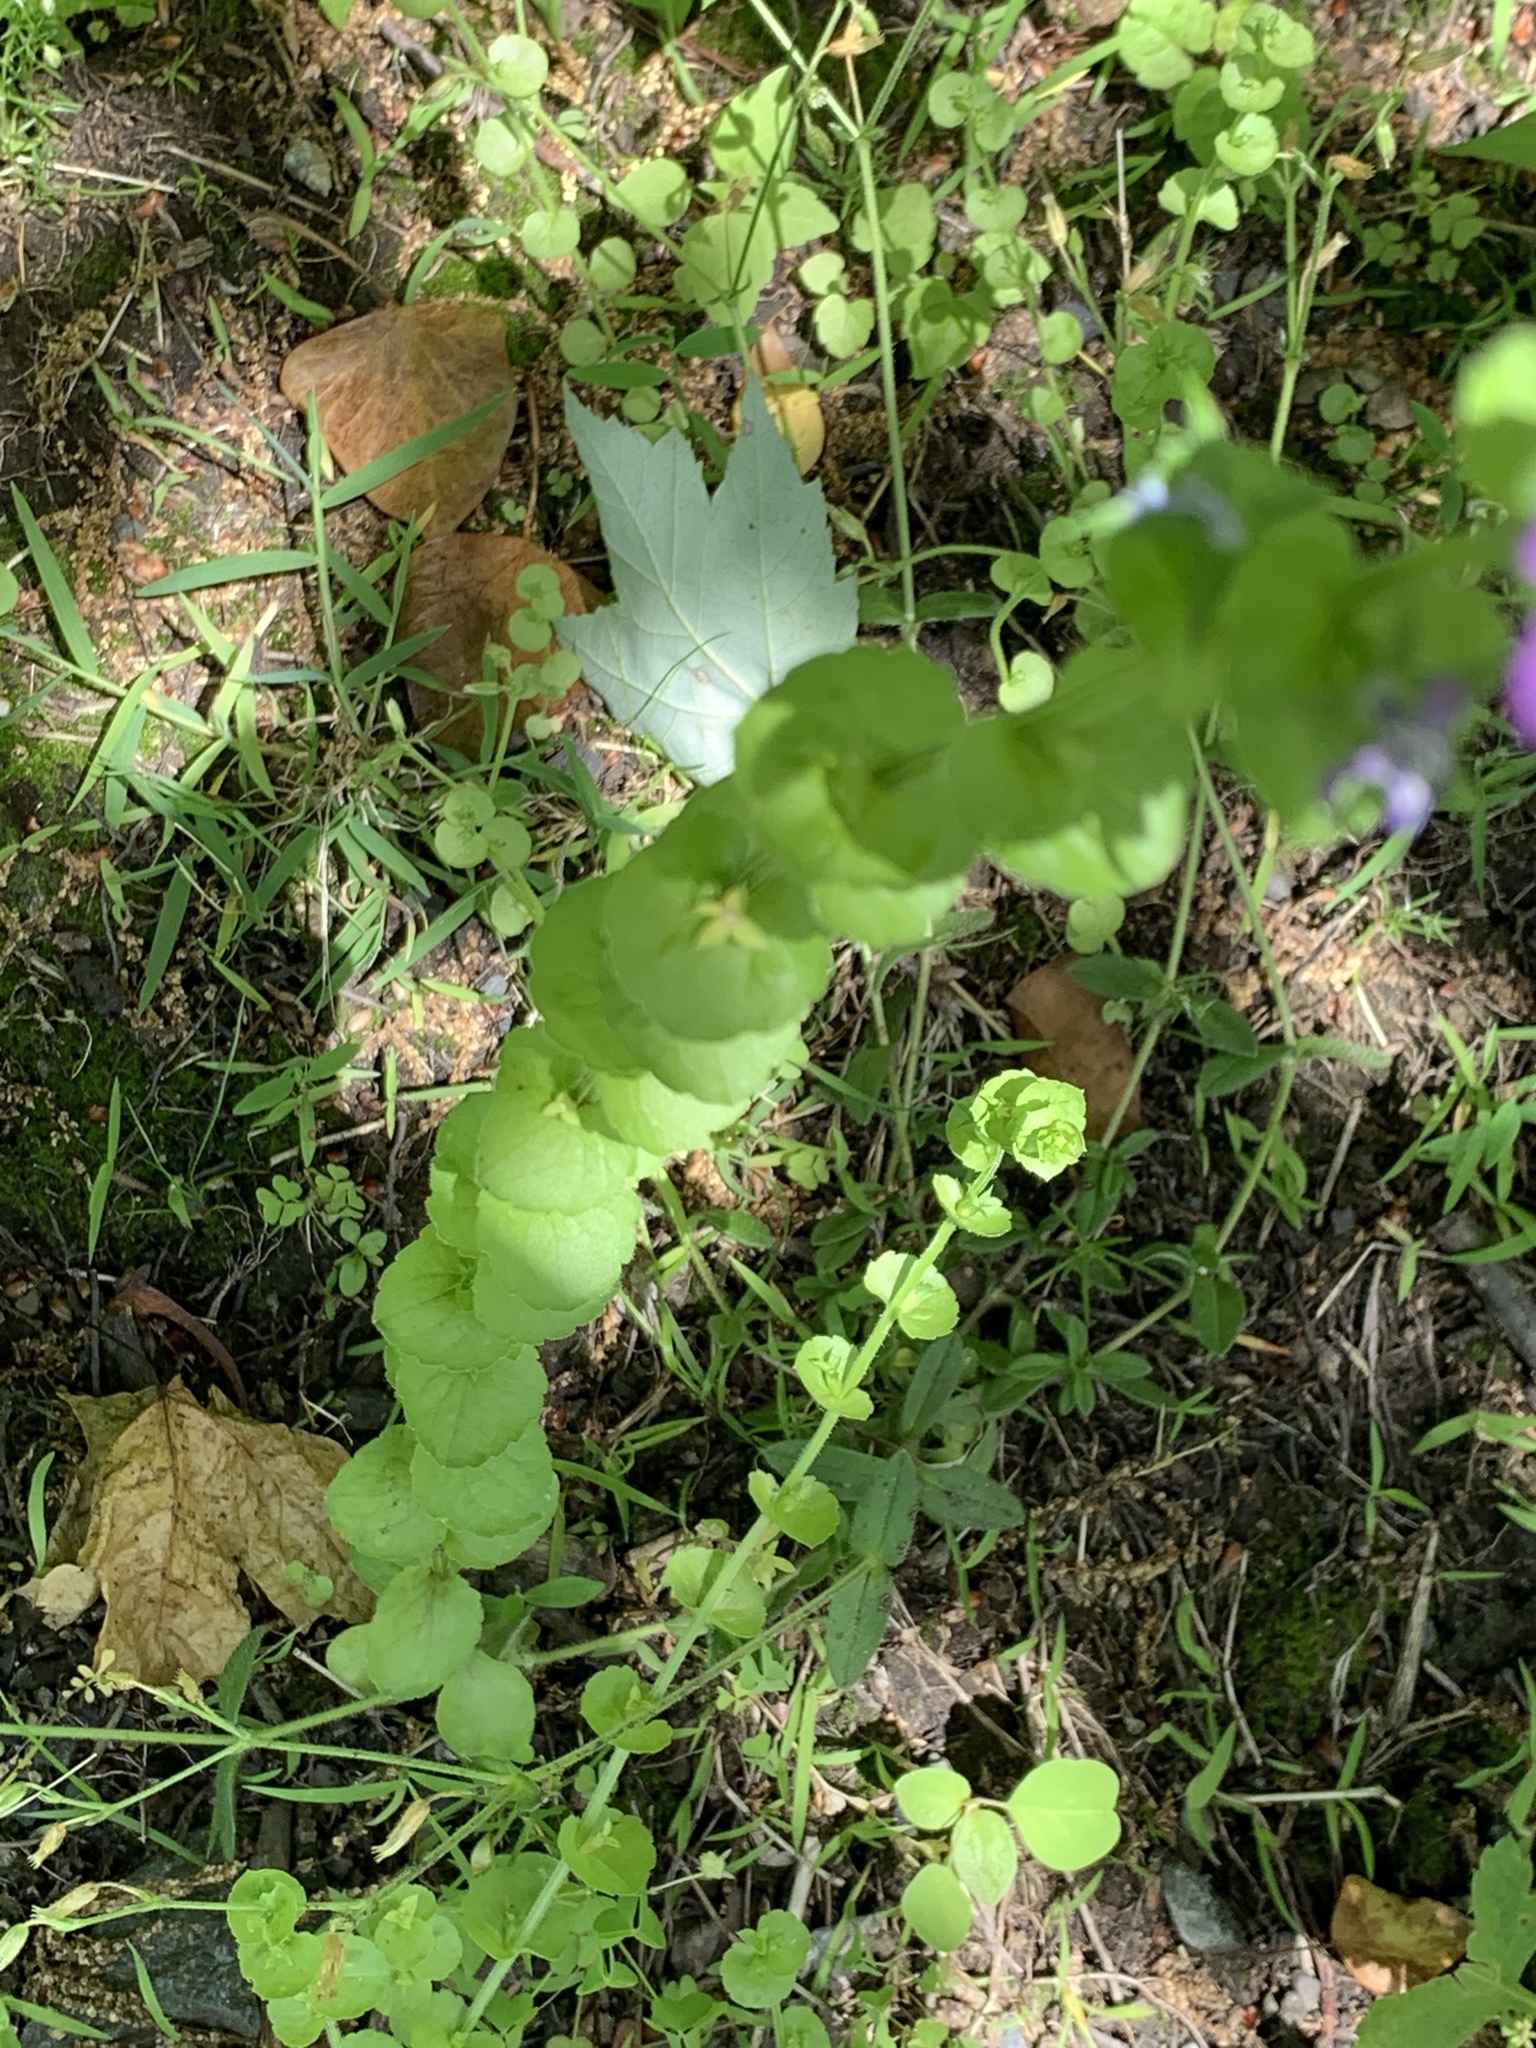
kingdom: Plantae
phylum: Tracheophyta
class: Magnoliopsida
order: Asterales
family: Campanulaceae
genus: Triodanis
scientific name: Triodanis perfoliata
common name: Clasping venus' looking-glass
